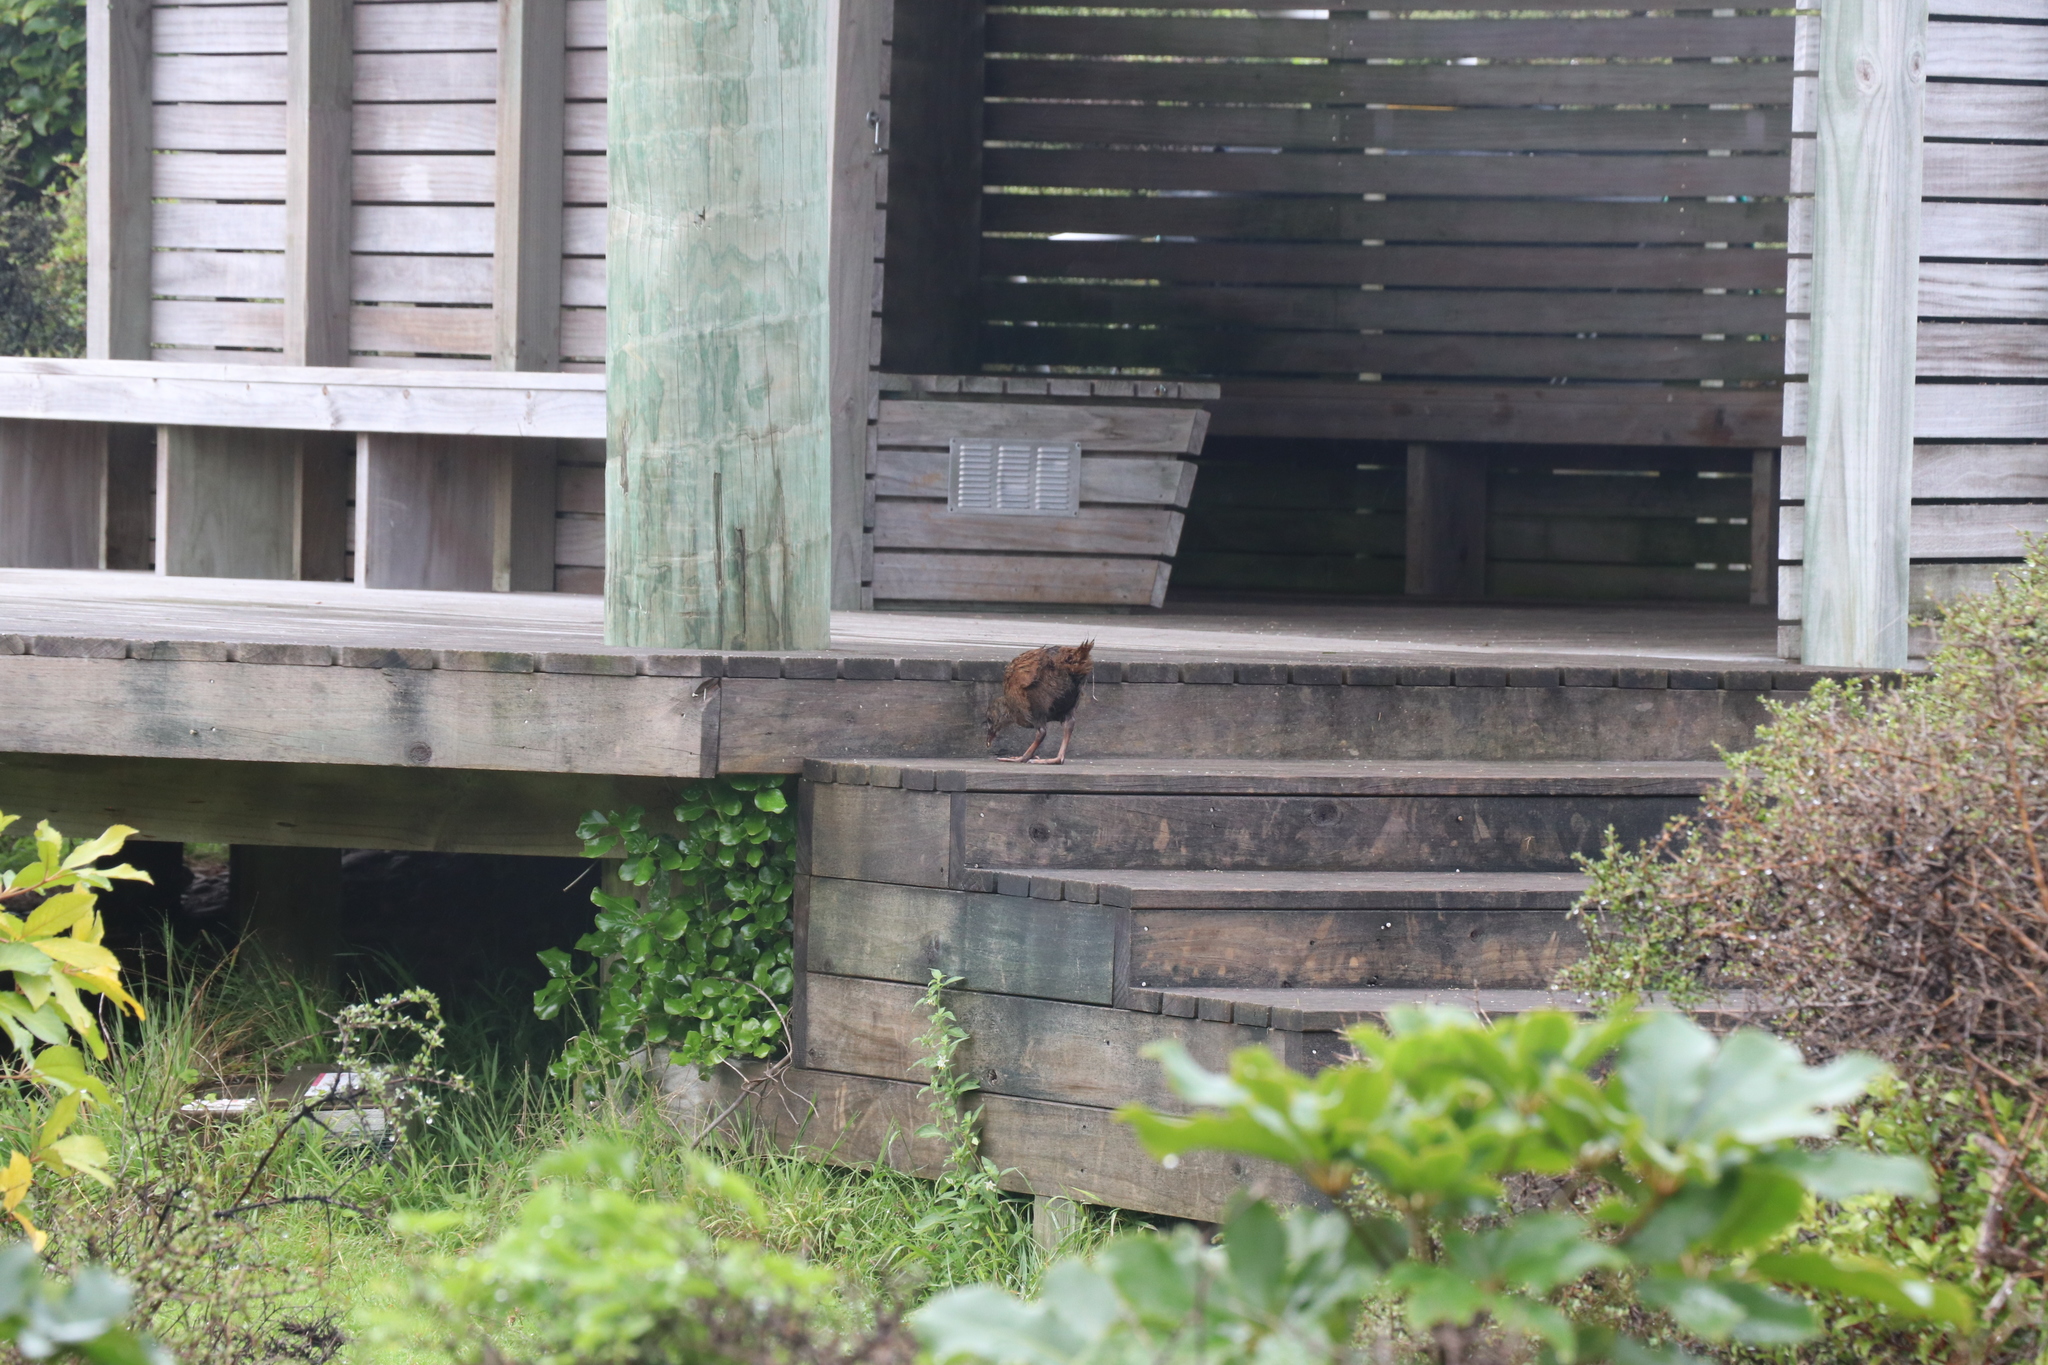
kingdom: Animalia
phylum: Chordata
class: Aves
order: Gruiformes
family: Rallidae
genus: Gallirallus
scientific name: Gallirallus australis
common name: Weka
